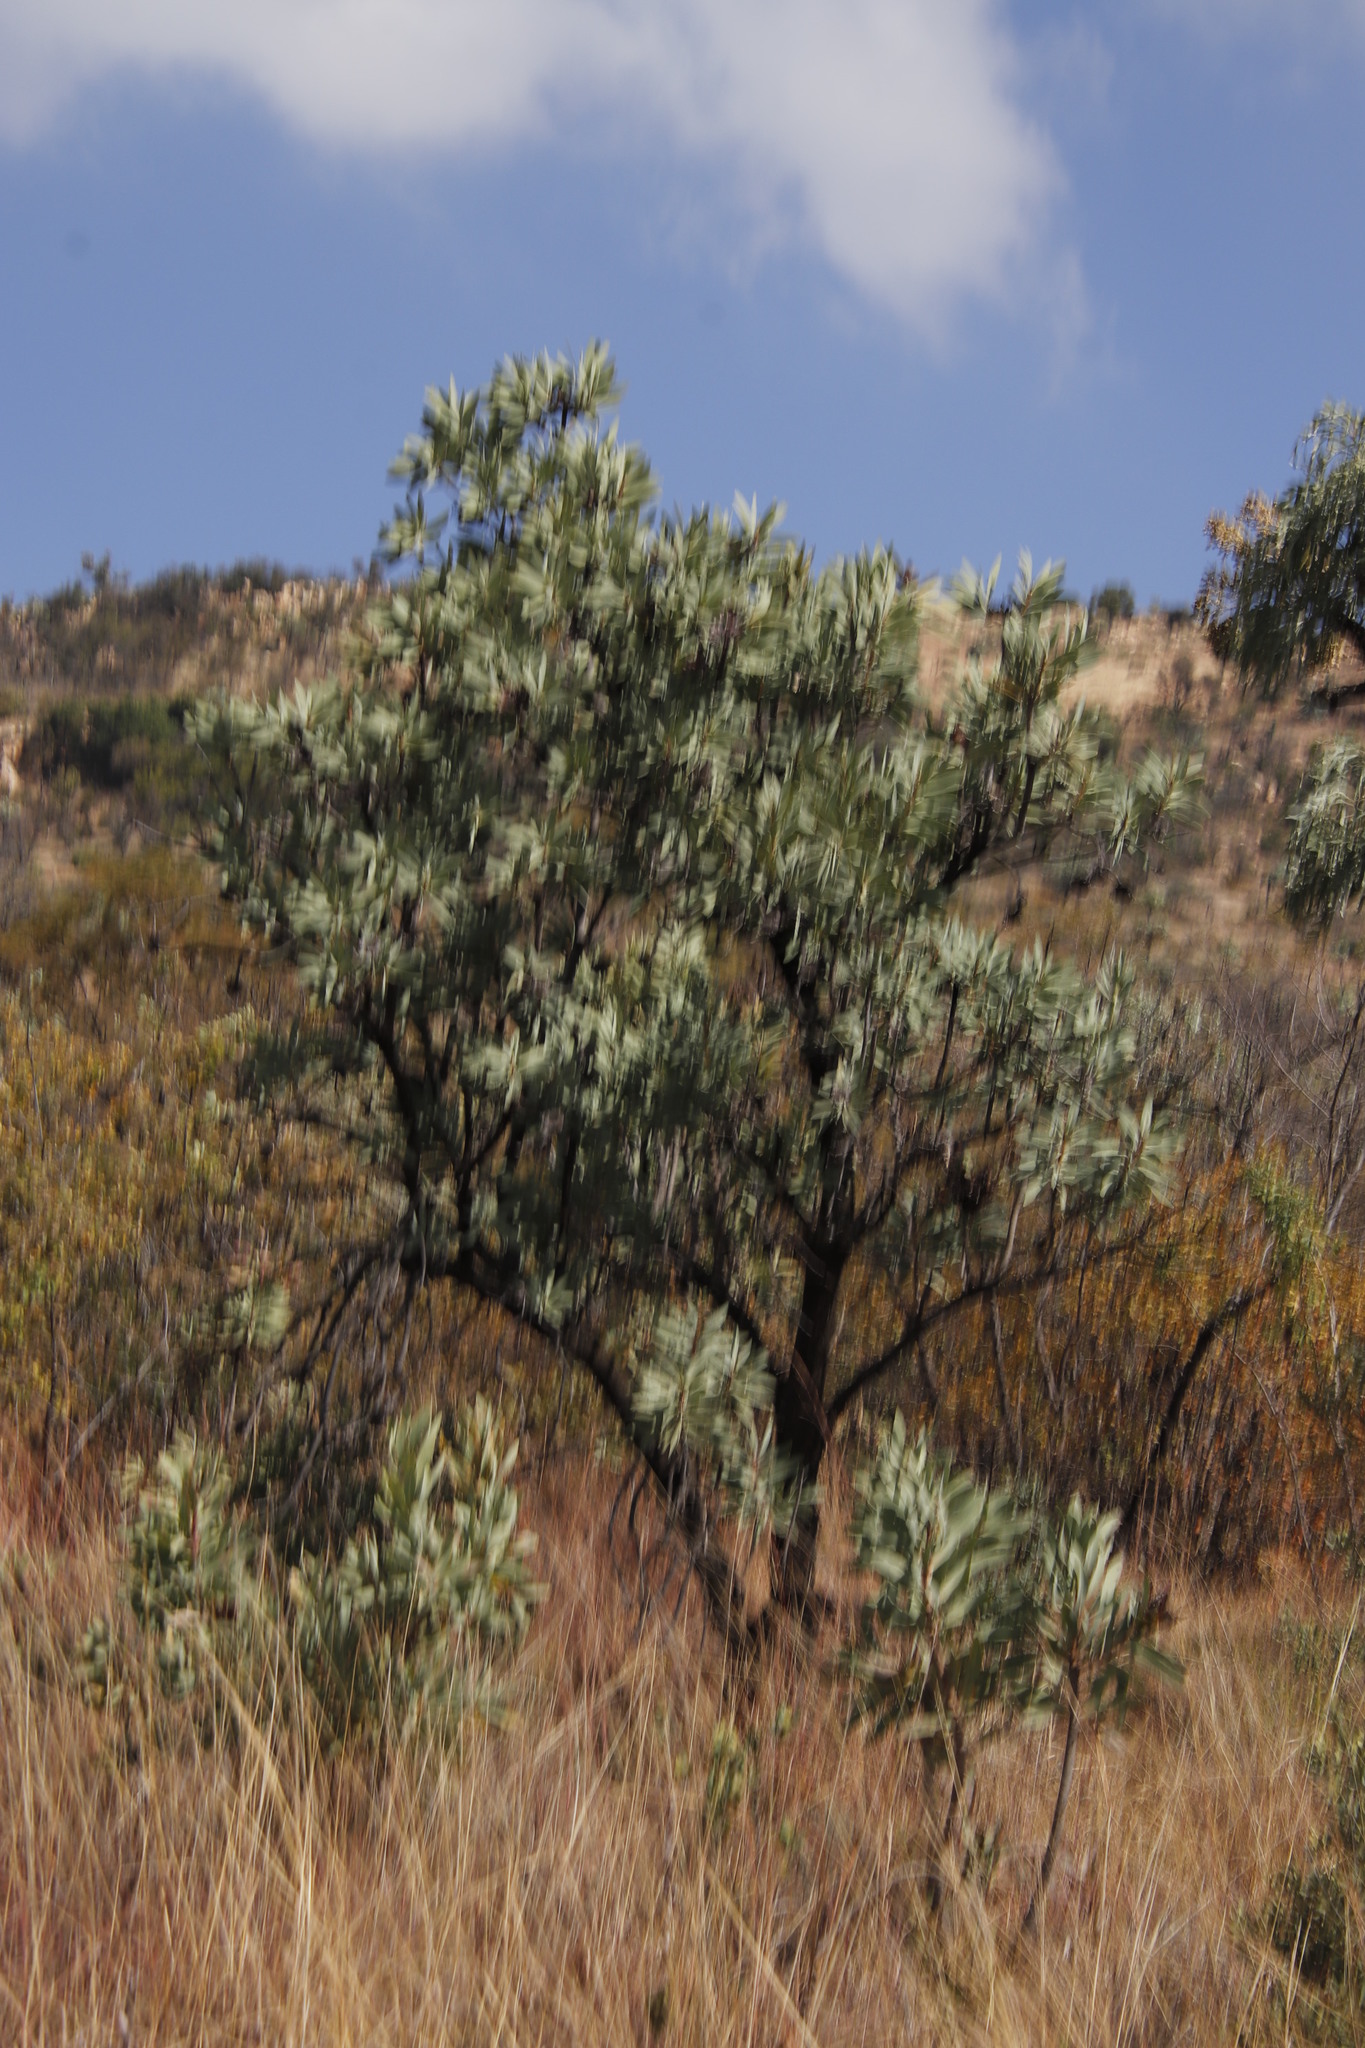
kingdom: Plantae
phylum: Tracheophyta
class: Magnoliopsida
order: Proteales
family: Proteaceae
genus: Protea
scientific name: Protea caffra
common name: Common sugarbush
